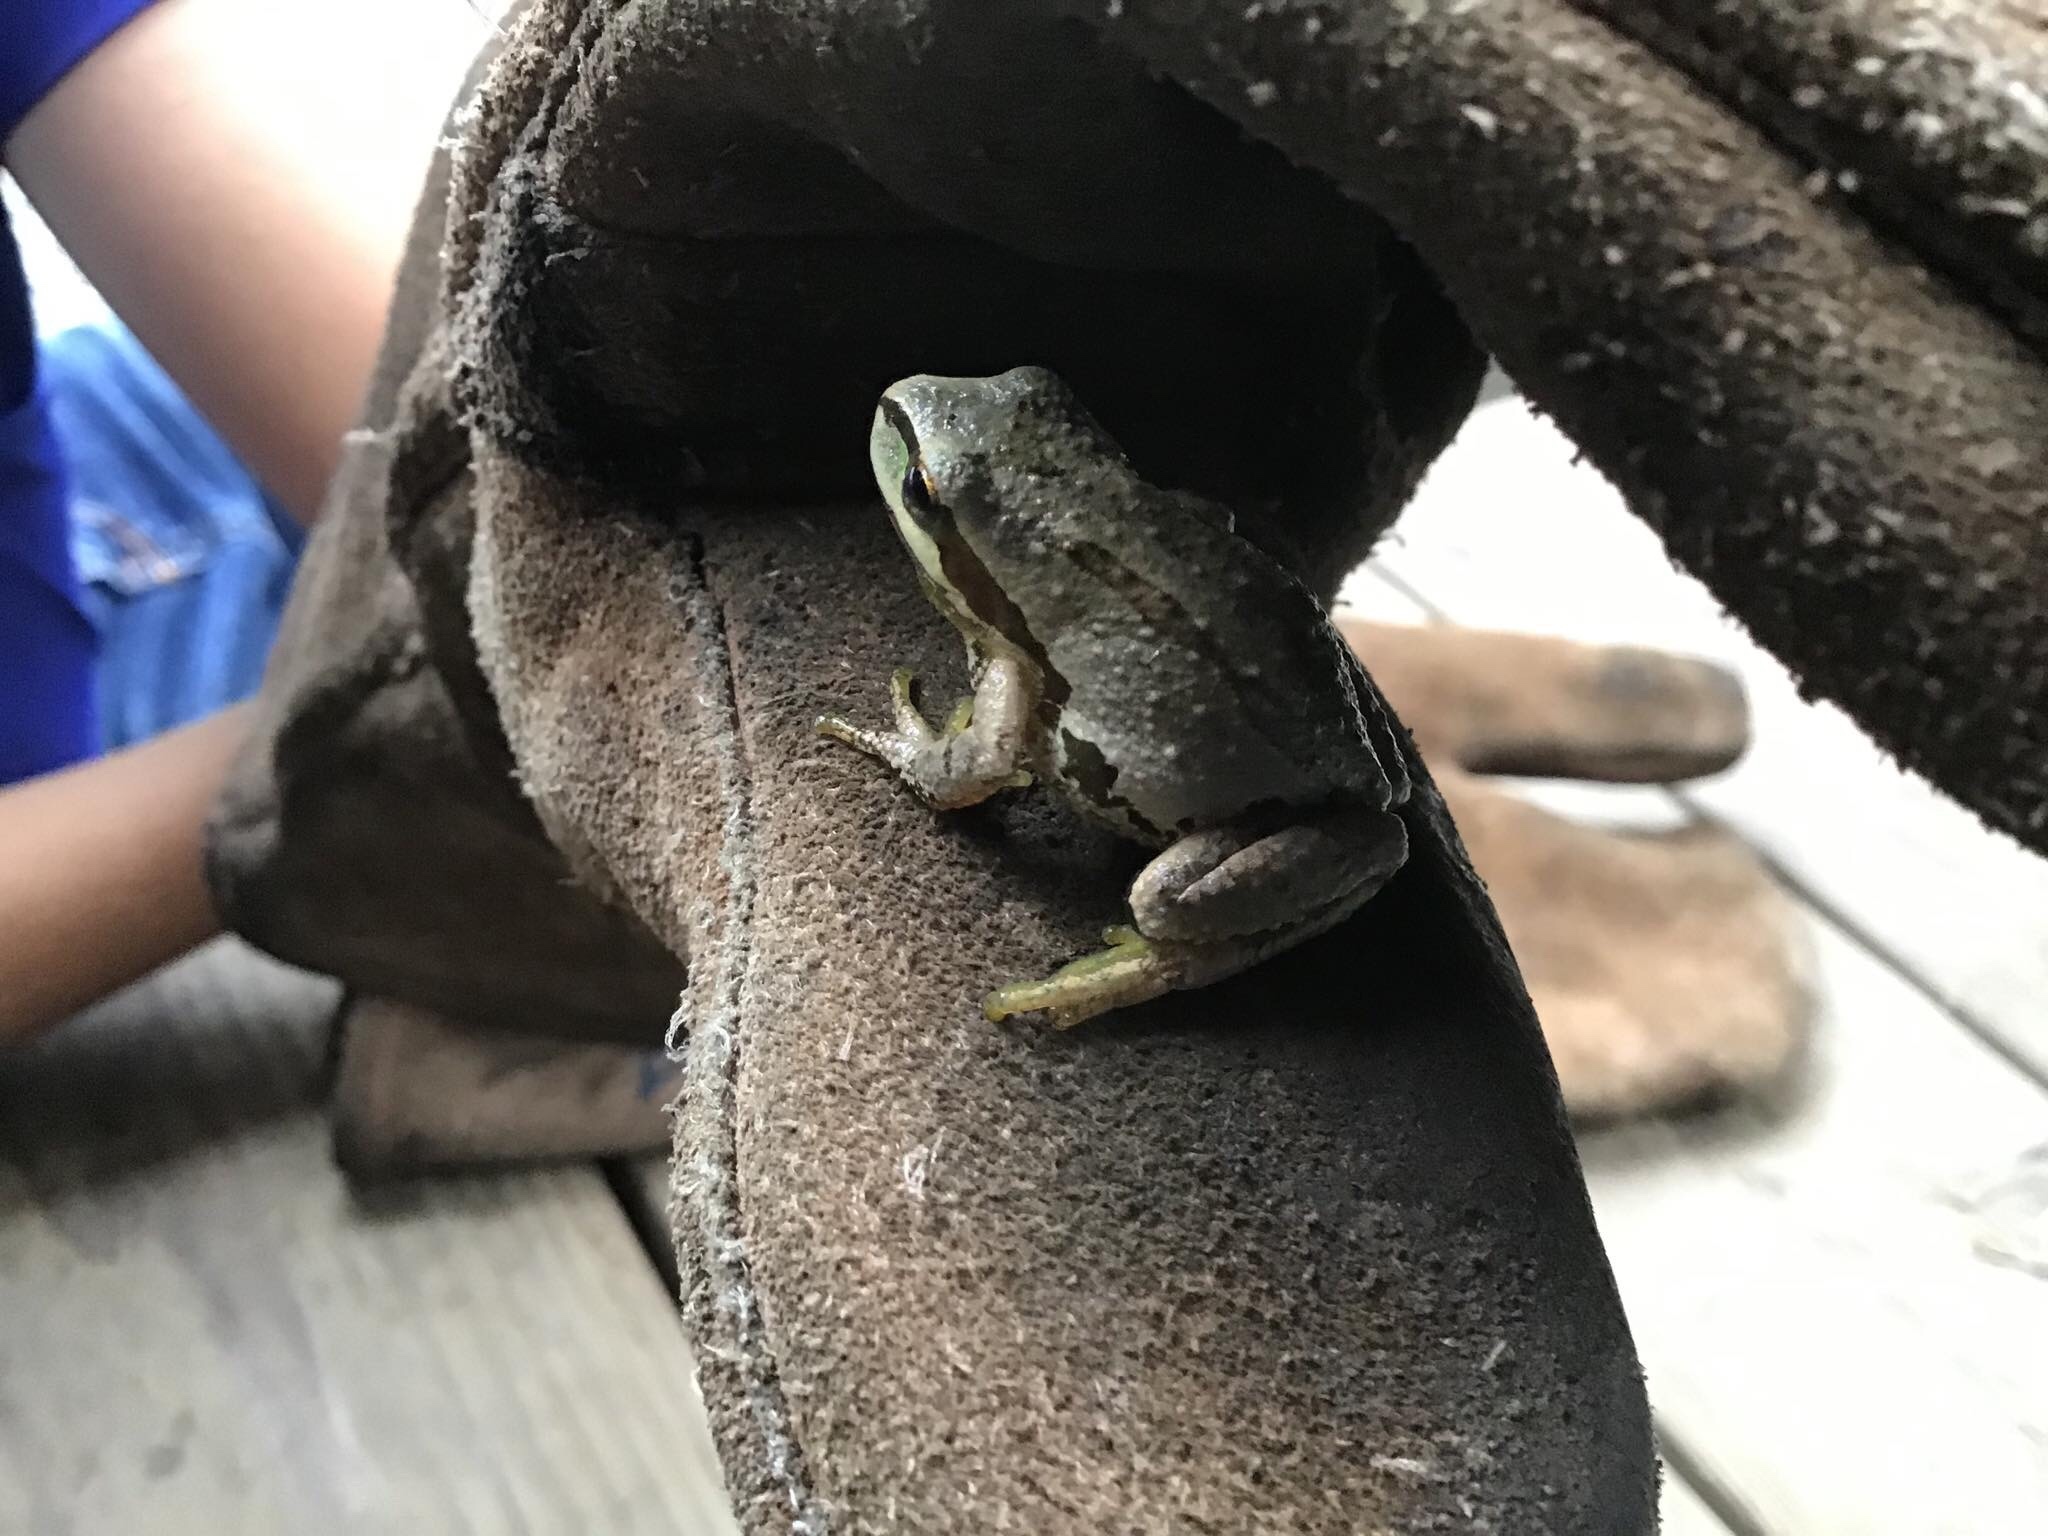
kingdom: Animalia
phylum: Chordata
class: Amphibia
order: Anura
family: Hylidae
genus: Pseudacris
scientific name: Pseudacris regilla
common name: Pacific chorus frog
